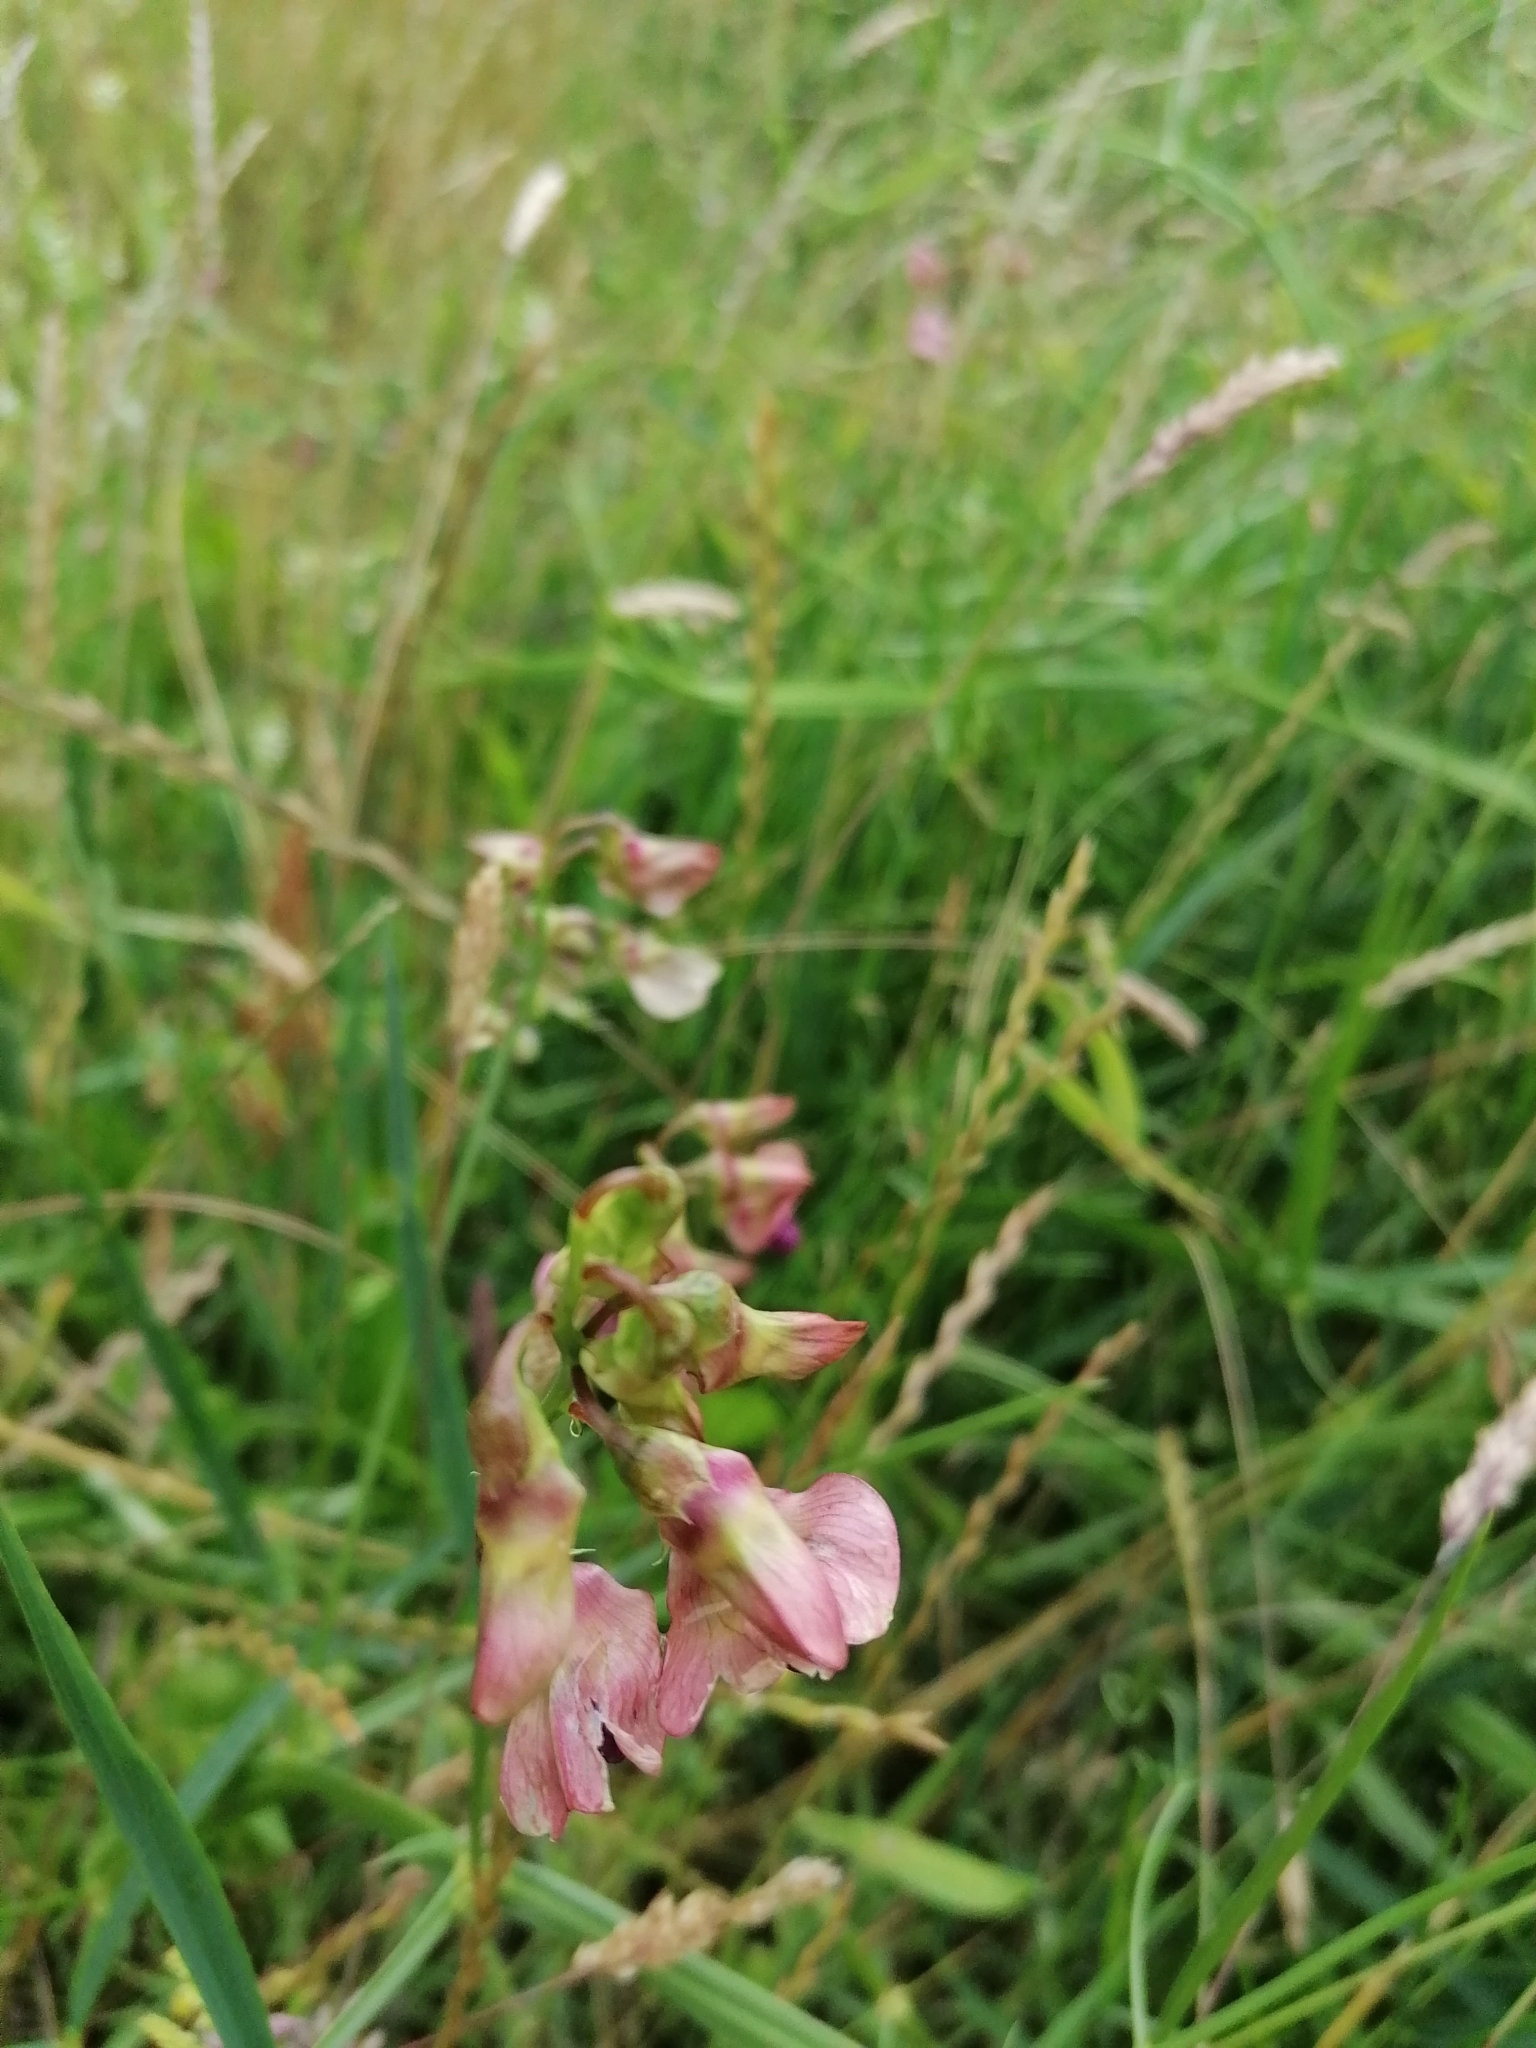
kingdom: Plantae
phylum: Tracheophyta
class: Magnoliopsida
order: Fabales
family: Fabaceae
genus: Lathyrus
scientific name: Lathyrus sylvestris
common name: Flat pea
